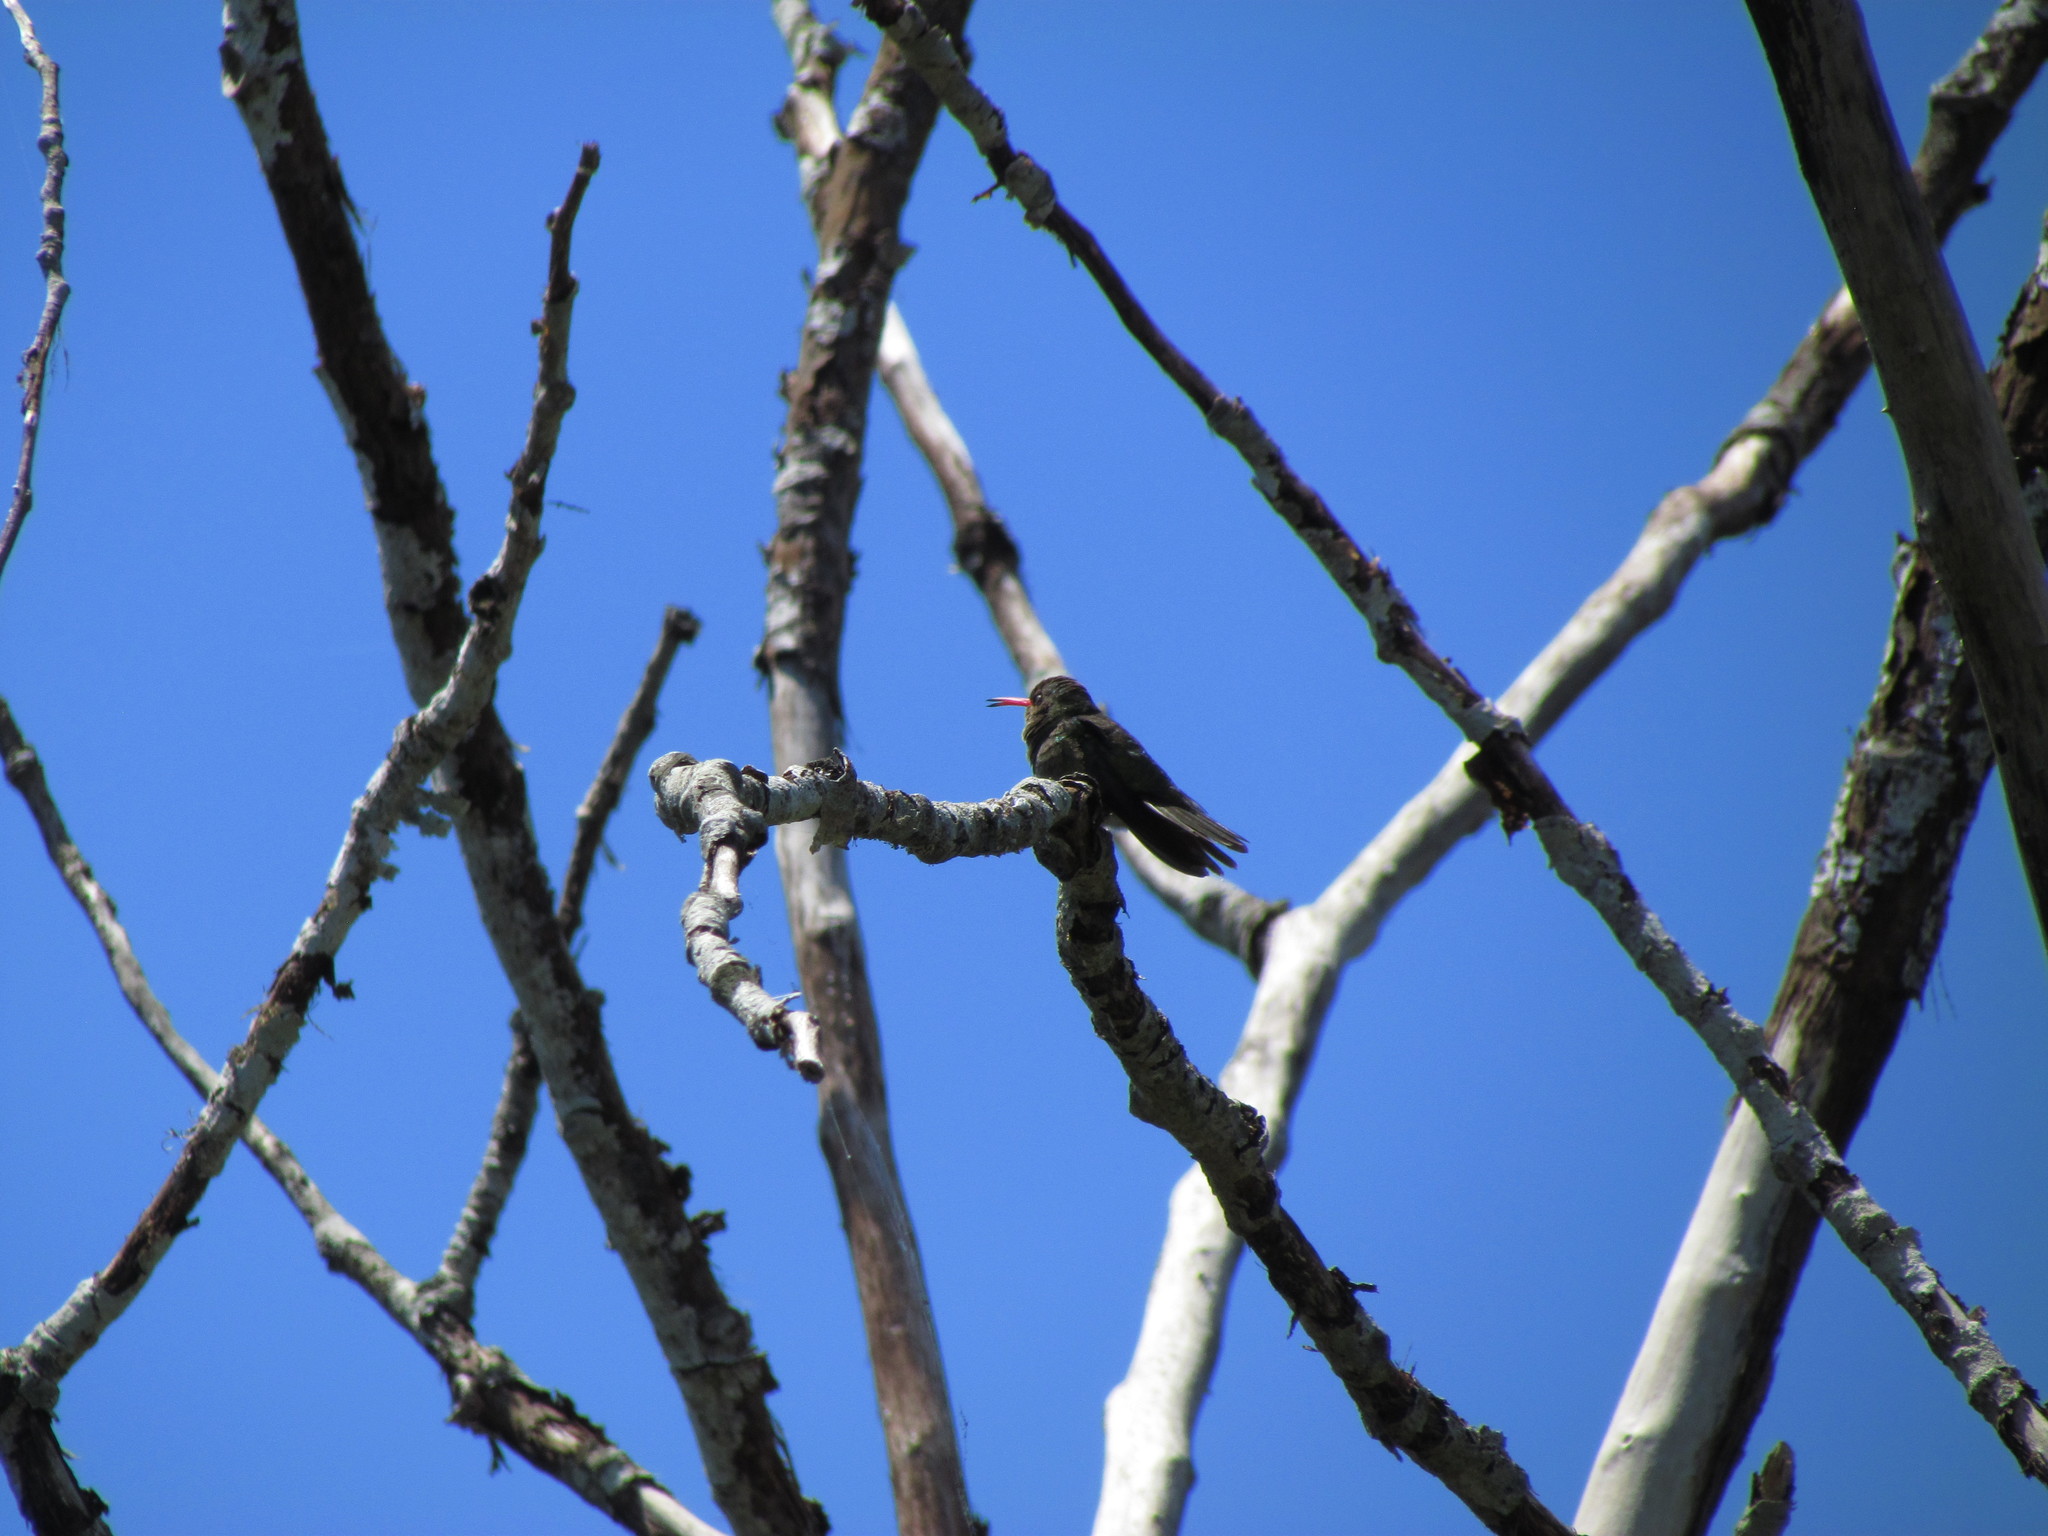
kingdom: Animalia
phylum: Chordata
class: Aves
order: Apodiformes
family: Trochilidae
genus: Chlorostilbon
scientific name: Chlorostilbon lucidus
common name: Glittering-bellied emerald
